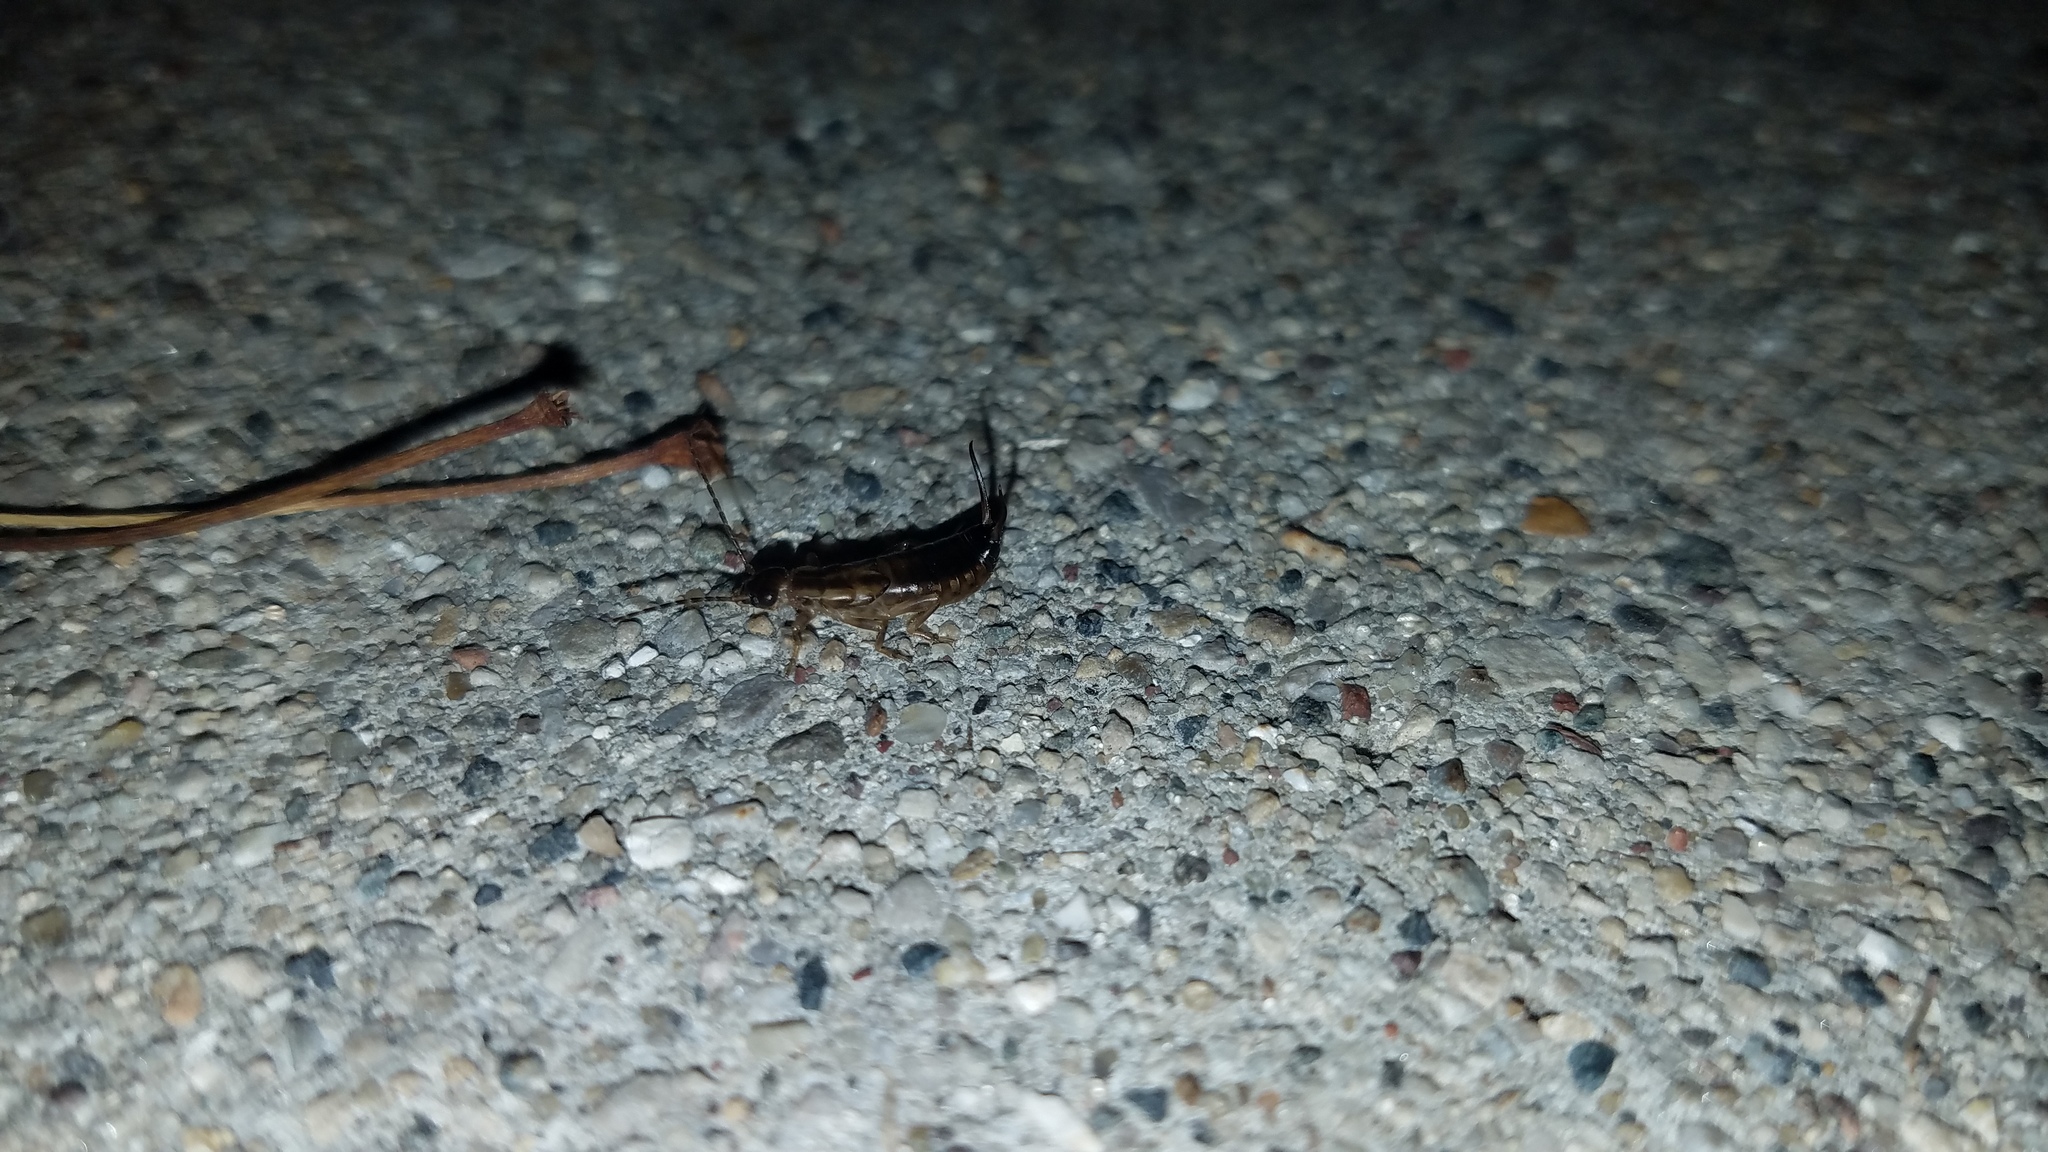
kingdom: Animalia
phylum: Arthropoda
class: Insecta
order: Dermaptera
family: Forficulidae
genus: Forficula
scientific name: Forficula
